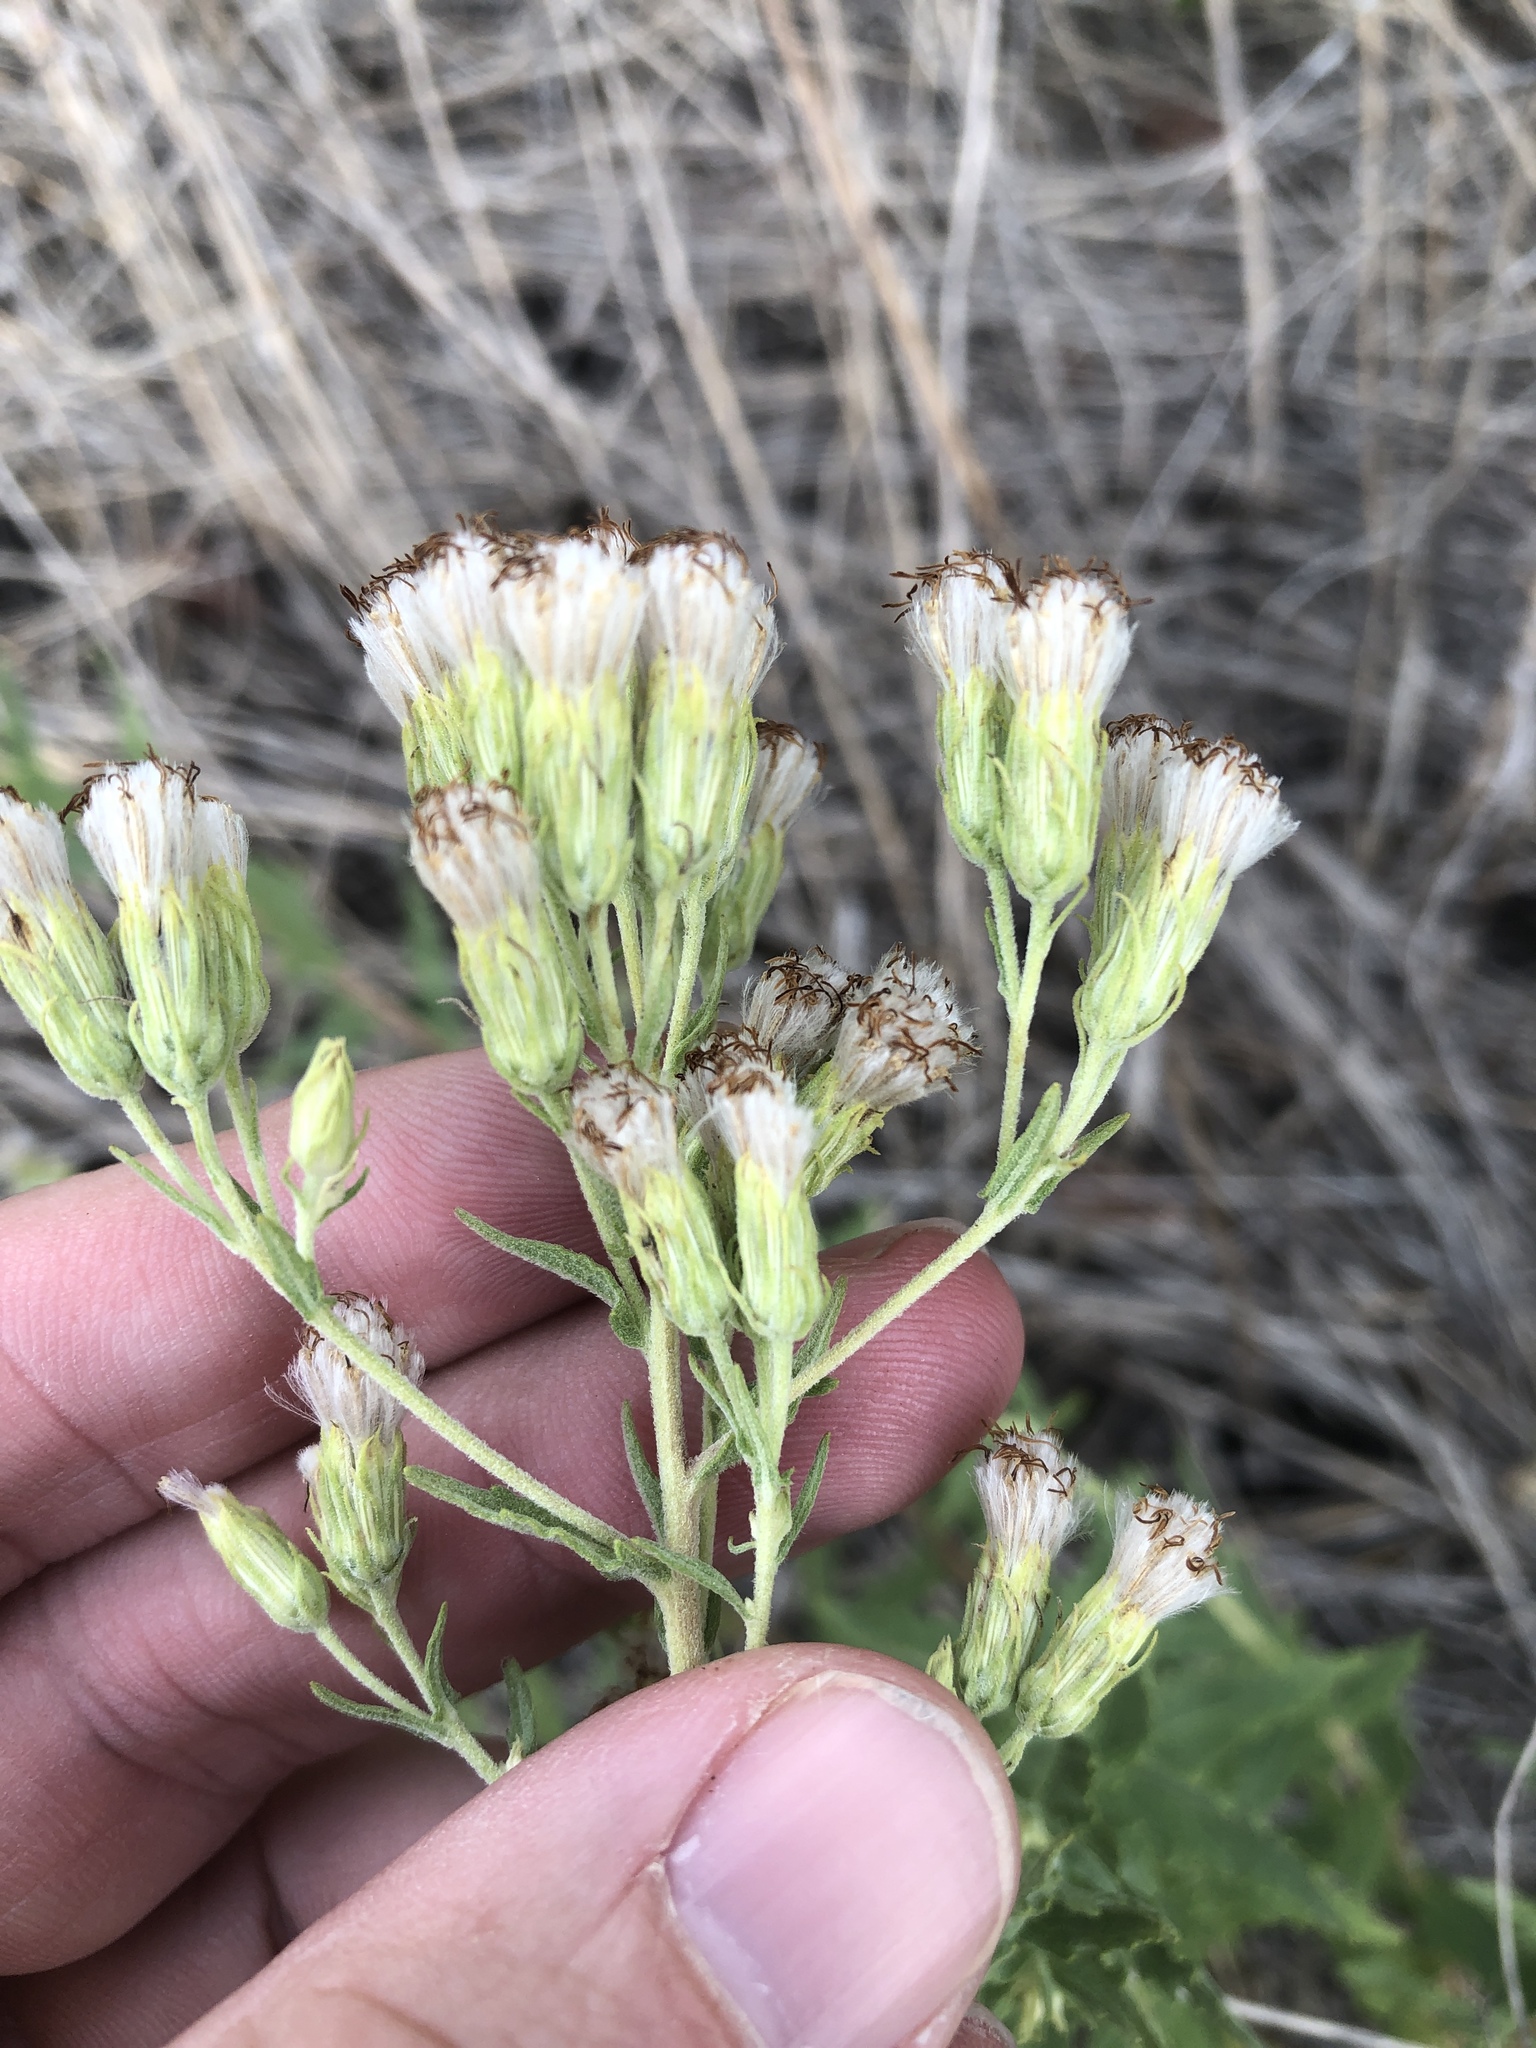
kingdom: Plantae
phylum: Tracheophyta
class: Magnoliopsida
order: Asterales
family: Asteraceae
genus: Brickellia
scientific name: Brickellia eupatorioides
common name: False boneset
